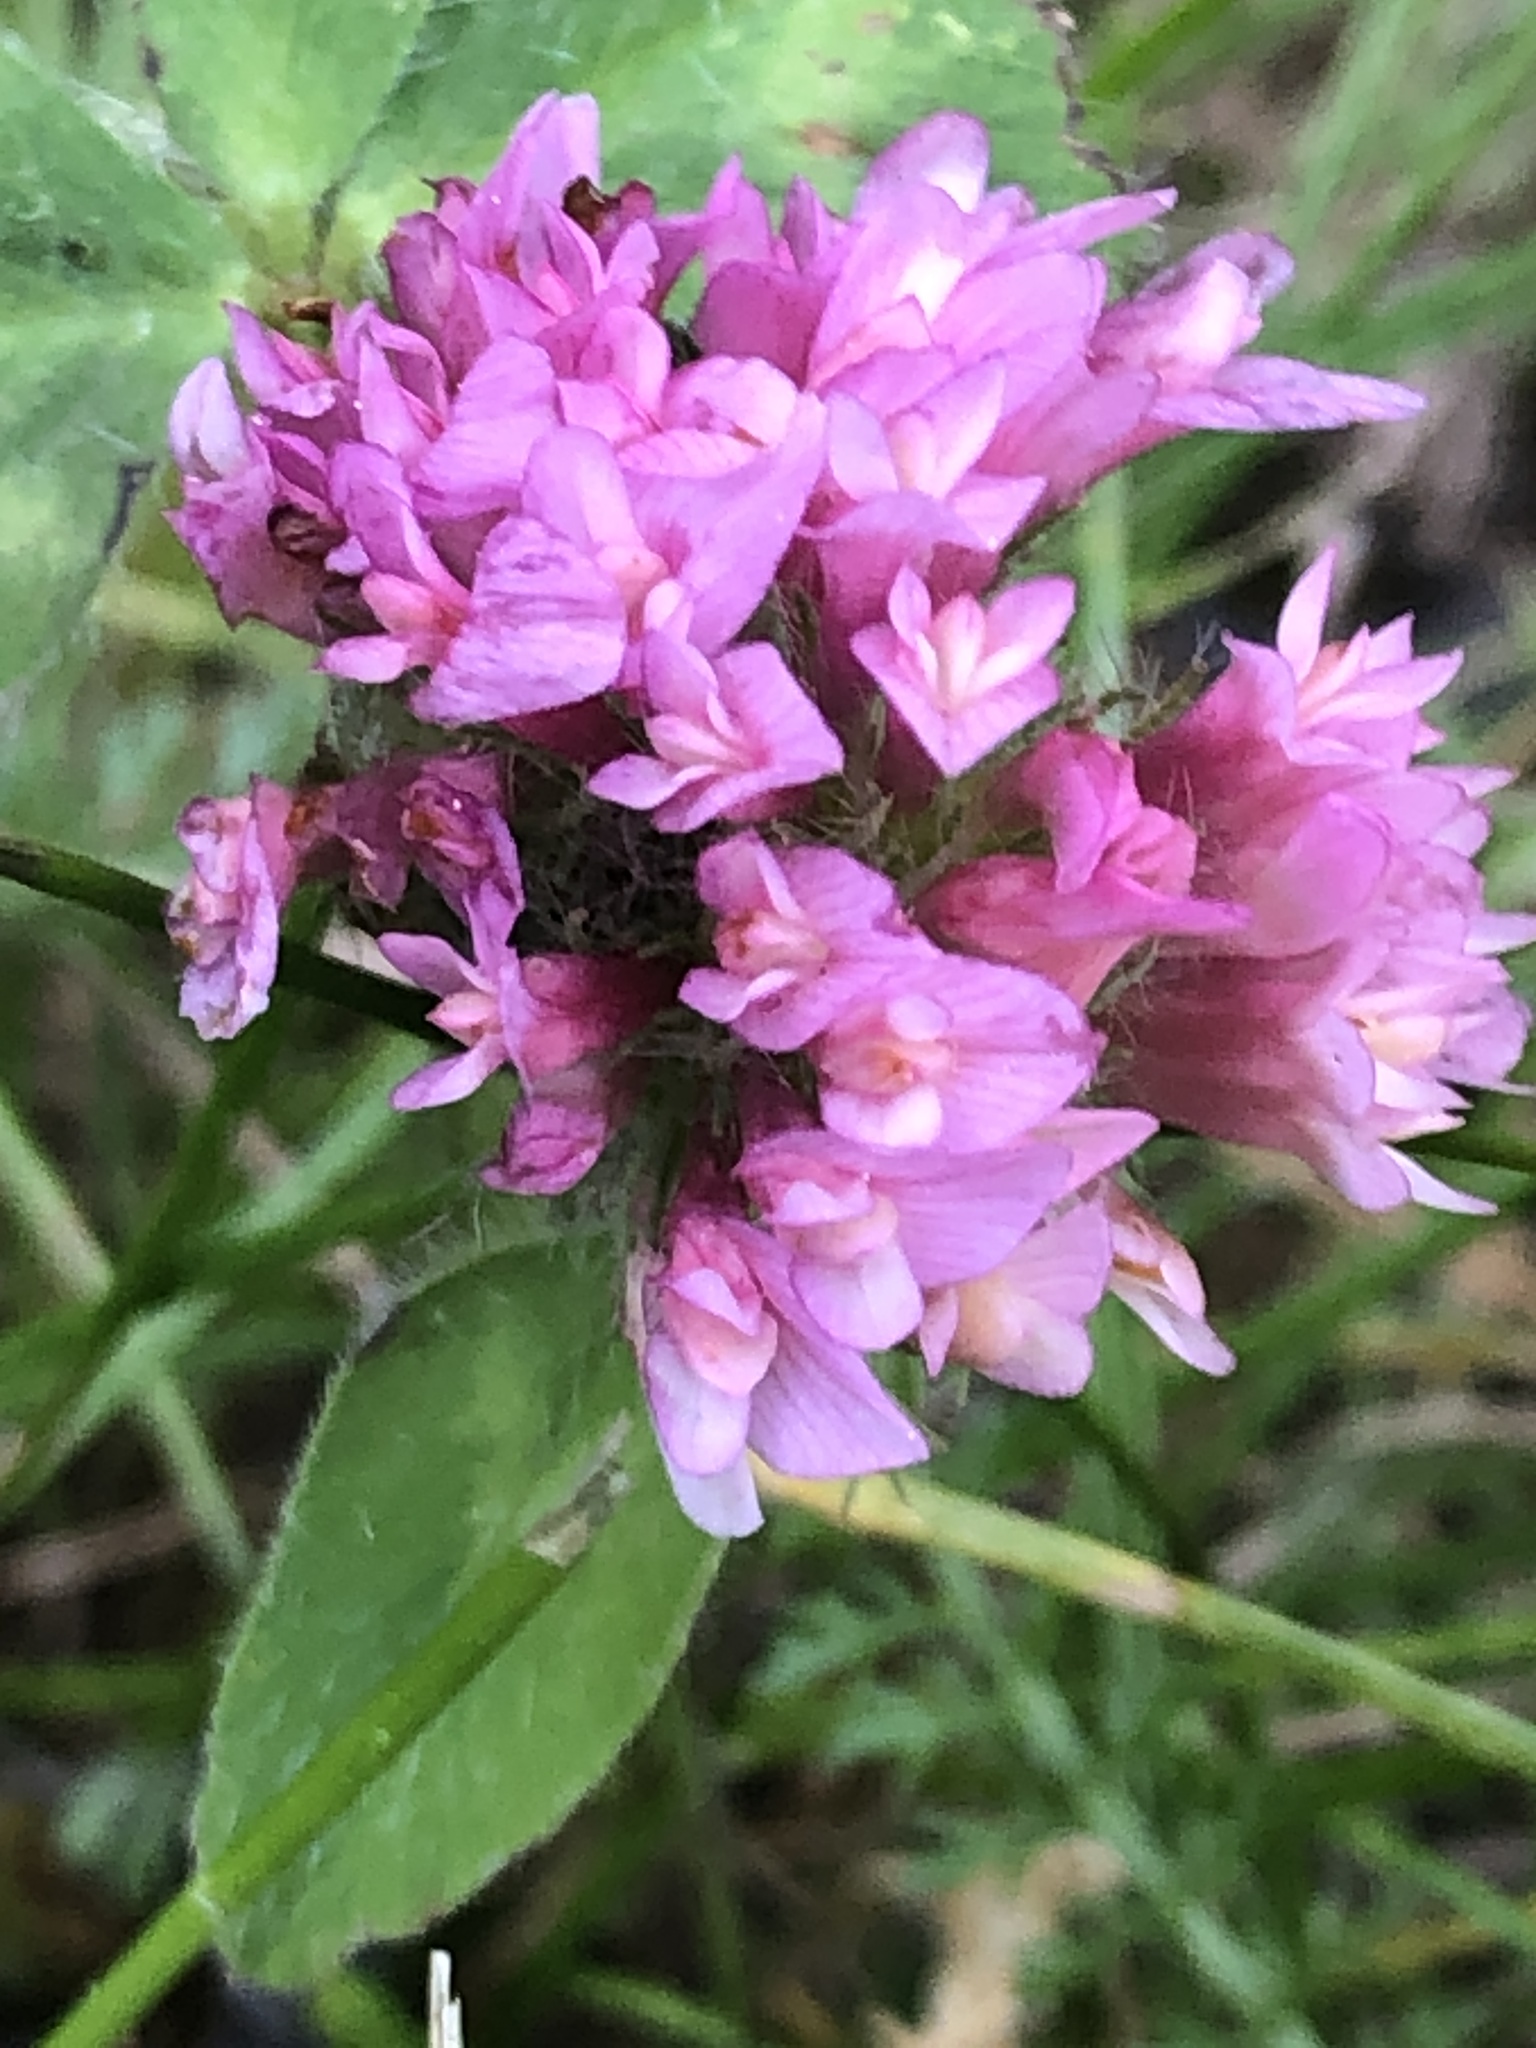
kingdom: Plantae
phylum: Tracheophyta
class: Magnoliopsida
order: Fabales
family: Fabaceae
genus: Trifolium
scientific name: Trifolium pratense
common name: Red clover
